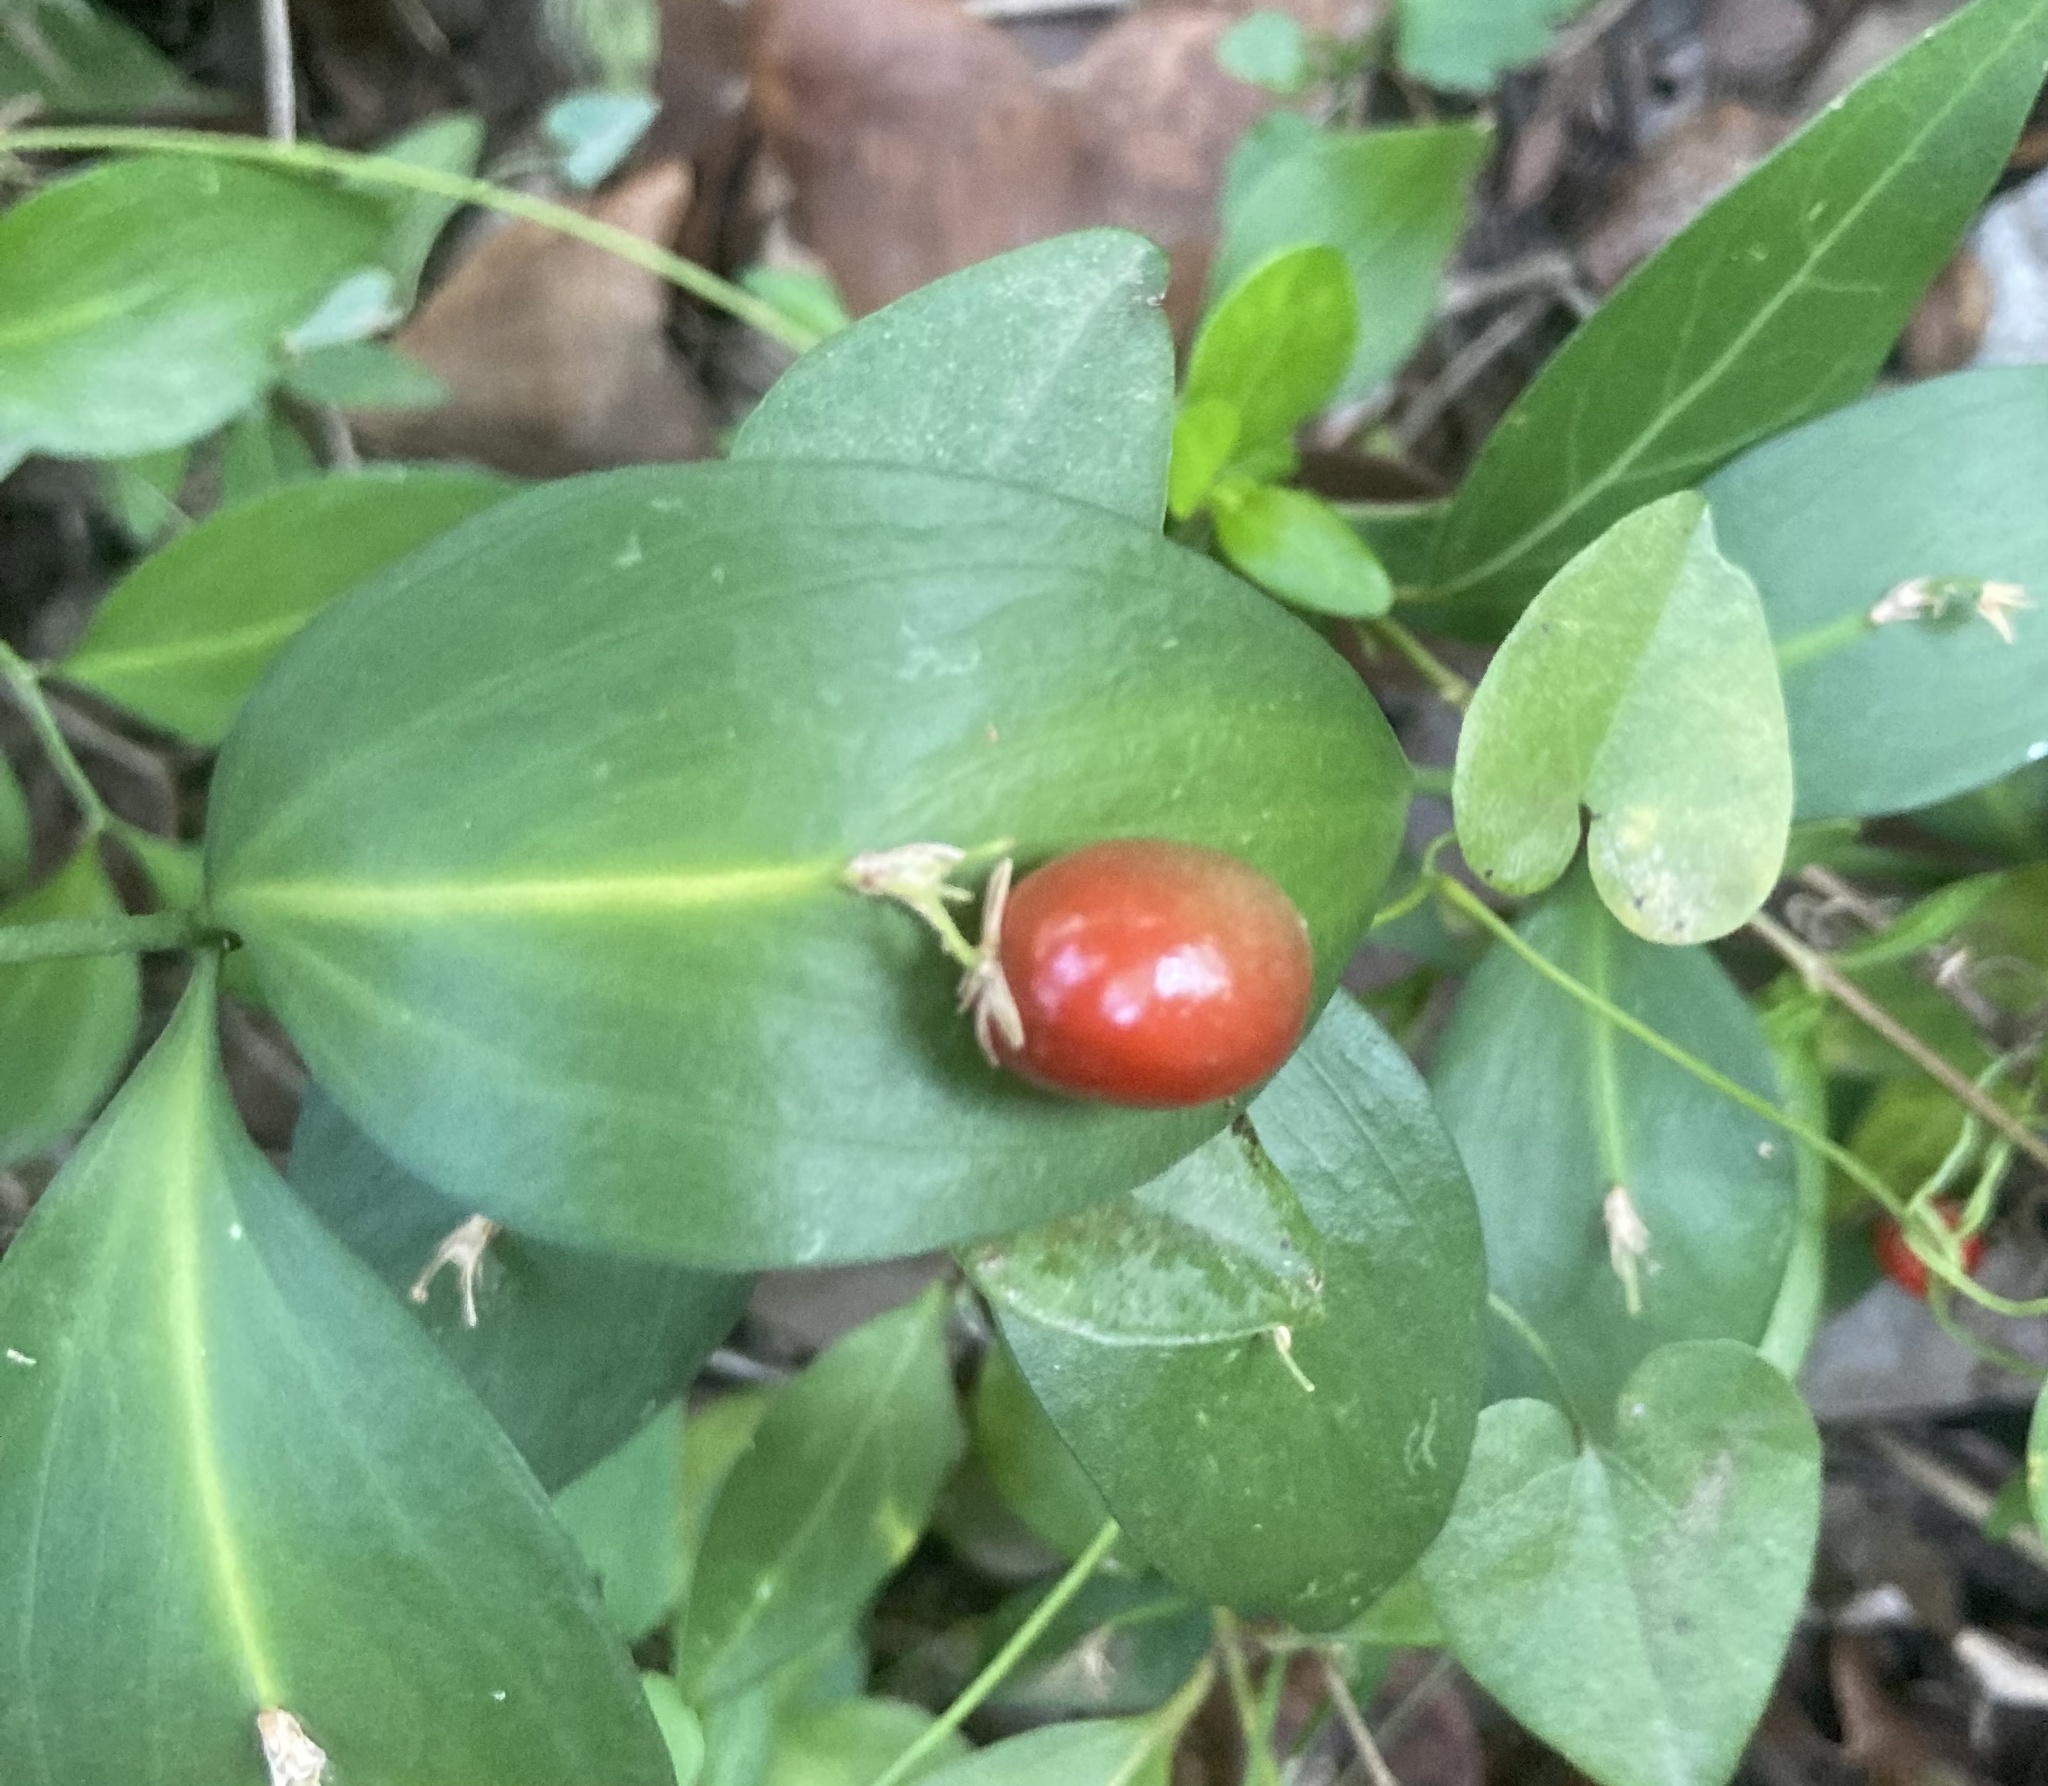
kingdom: Plantae
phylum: Tracheophyta
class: Liliopsida
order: Asparagales
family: Asparagaceae
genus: Ruscus
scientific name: Ruscus hypophyllum
